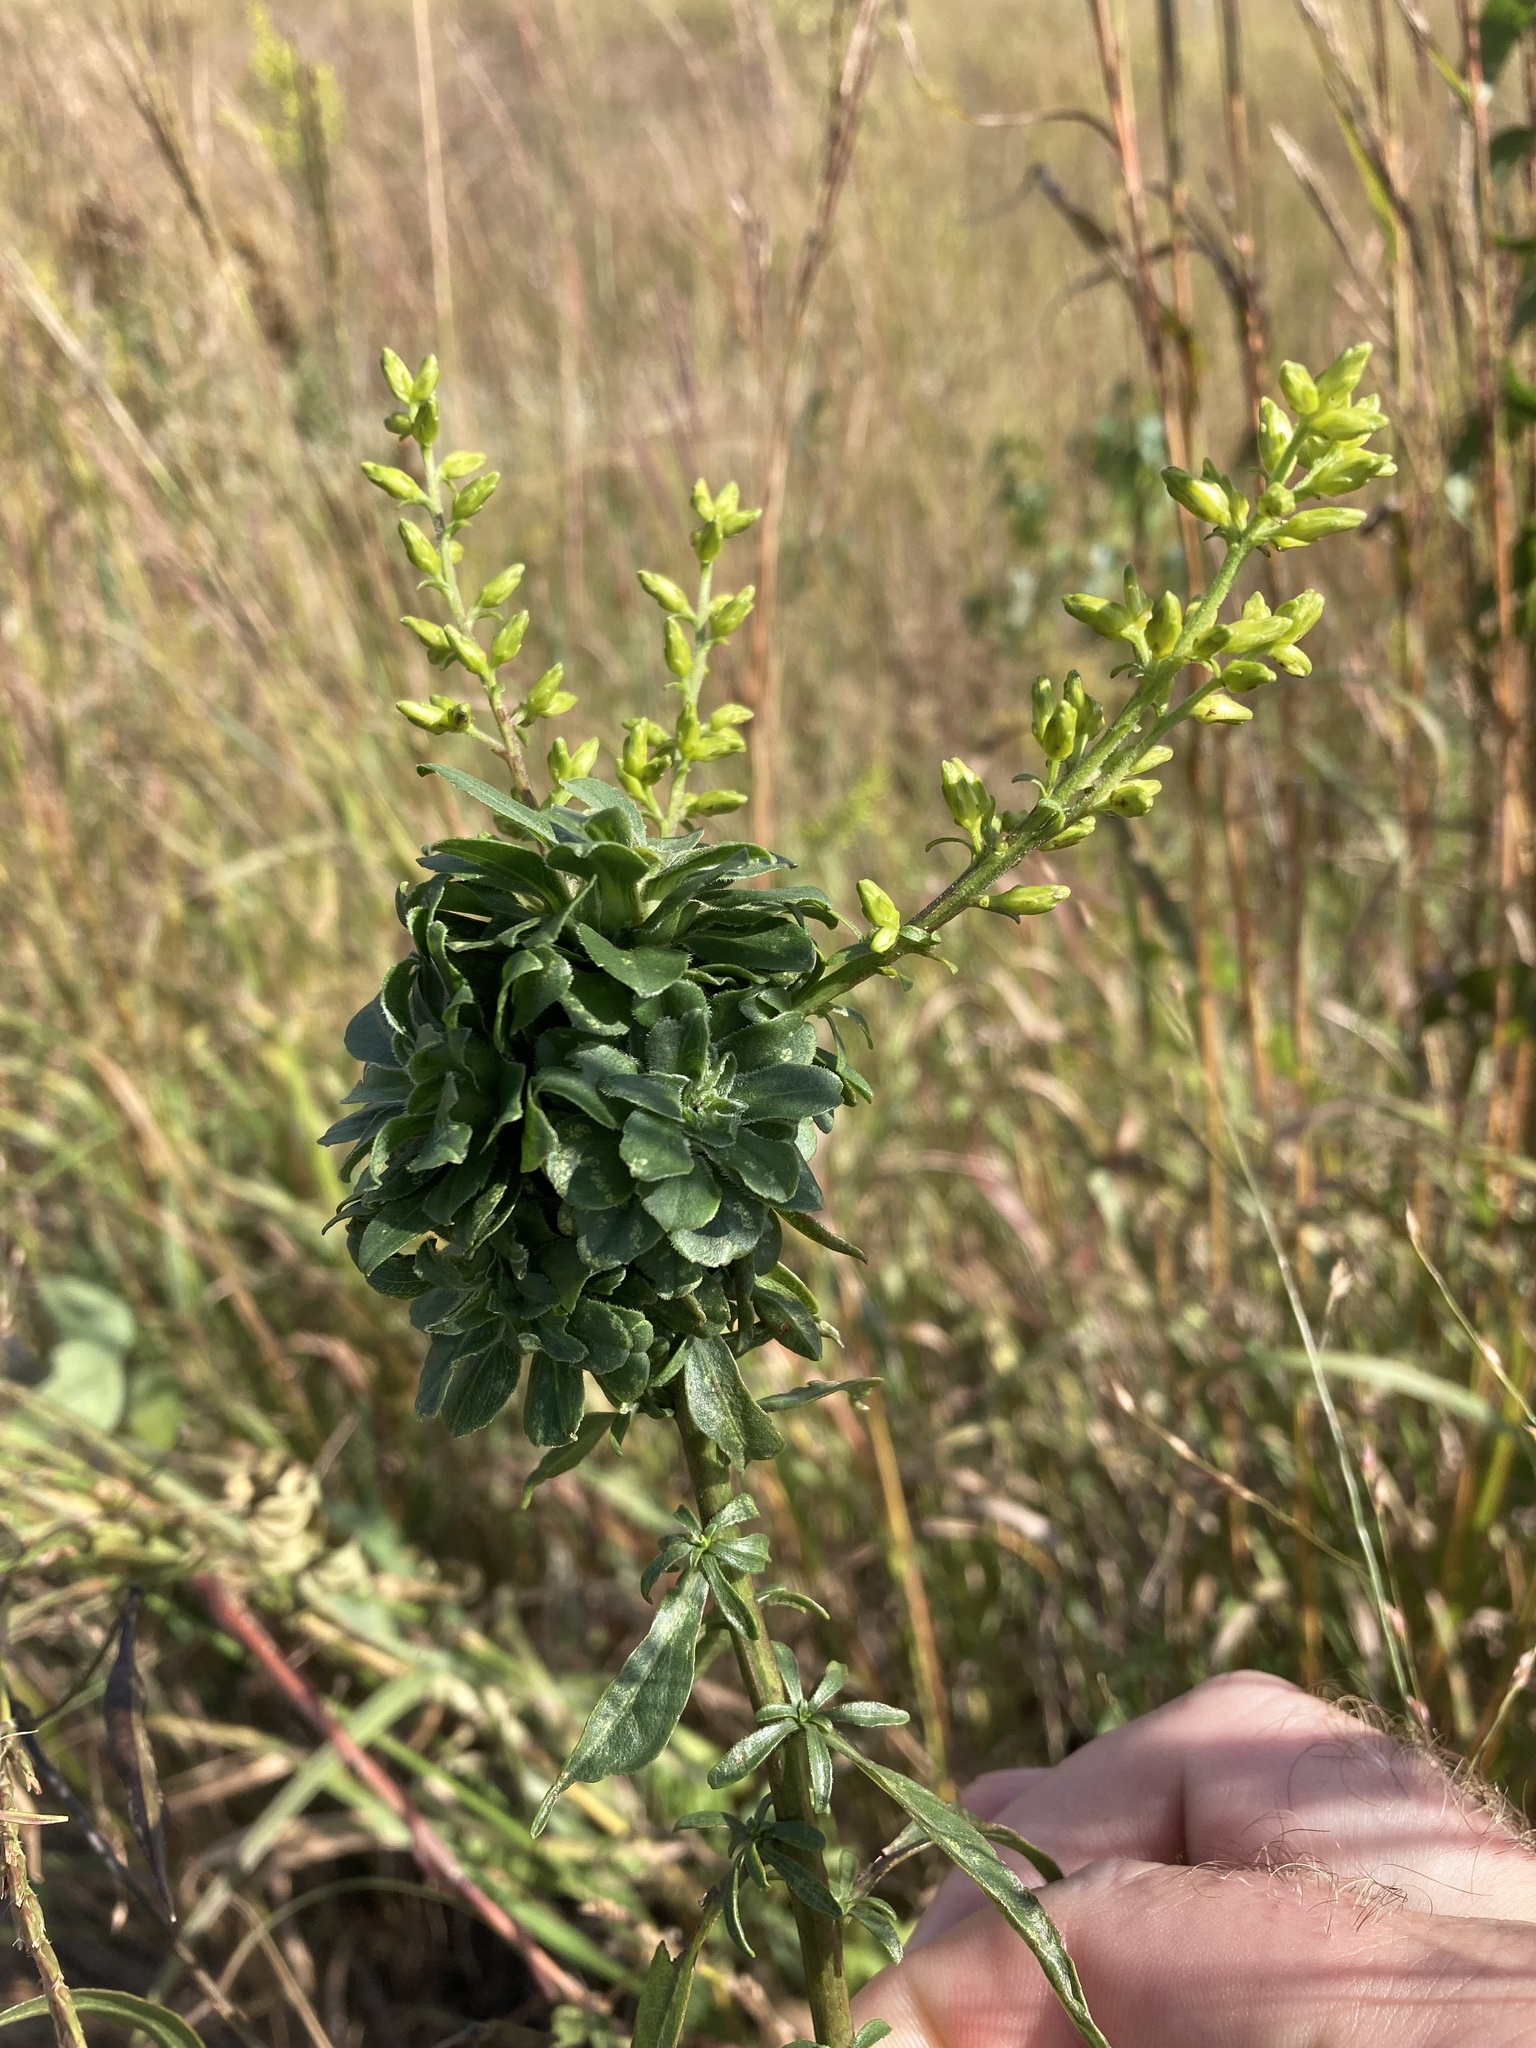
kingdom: Animalia
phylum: Arthropoda
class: Insecta
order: Diptera
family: Cecidomyiidae
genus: Asphondylia
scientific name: Asphondylia monacha
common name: Nun midge
